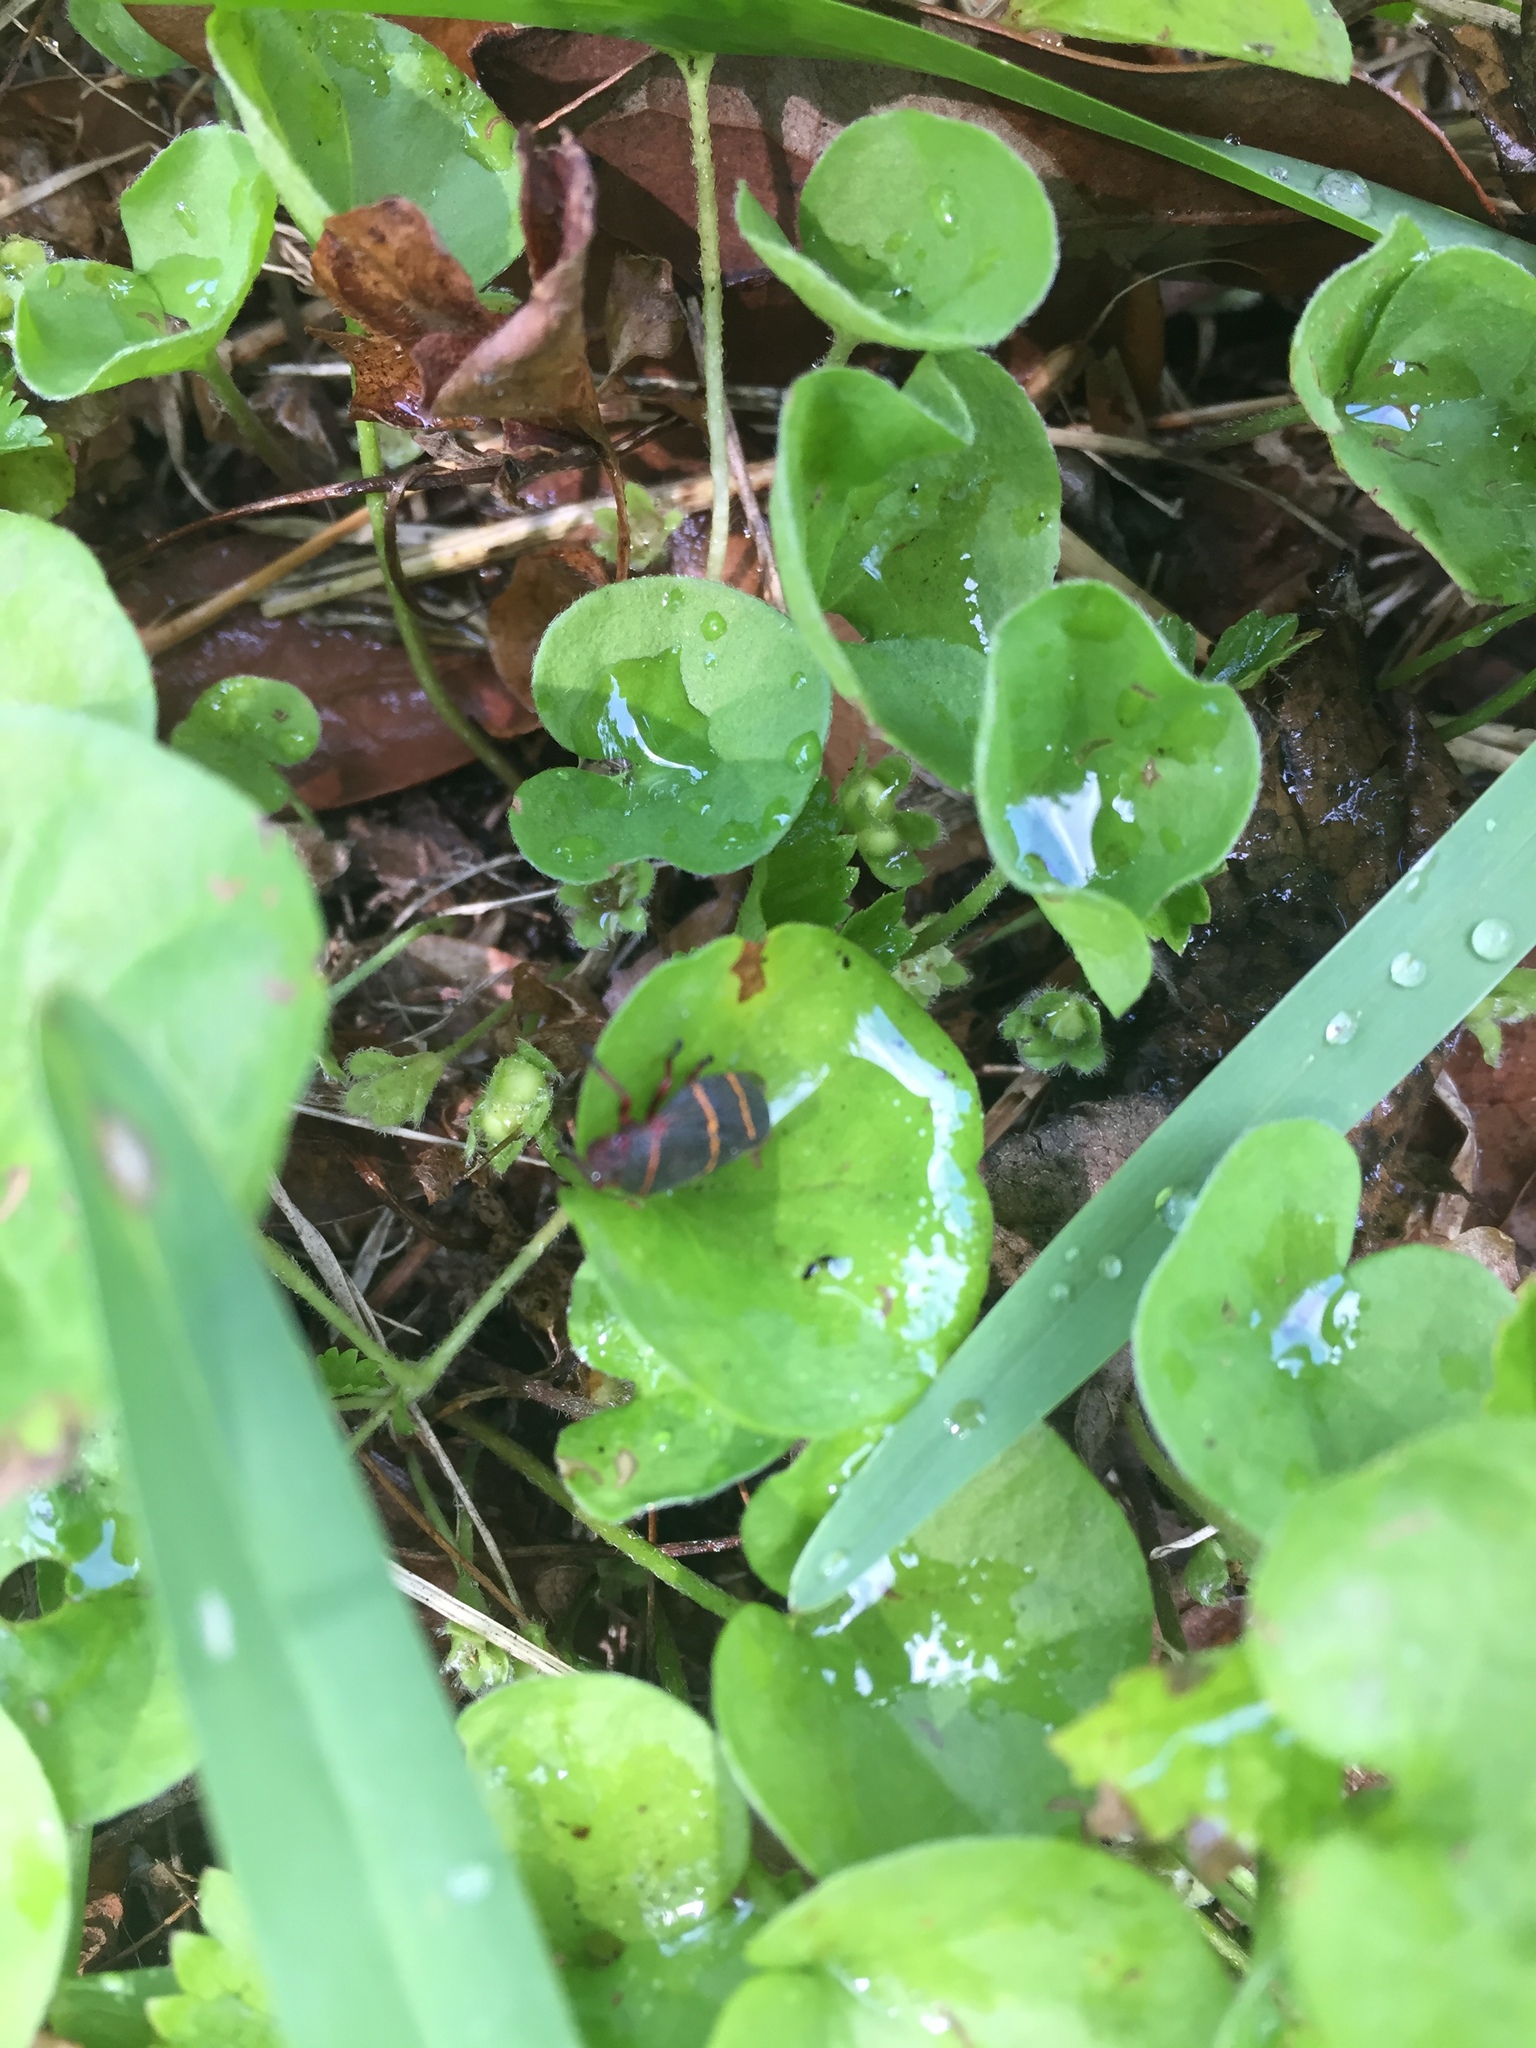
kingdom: Animalia
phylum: Arthropoda
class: Insecta
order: Hemiptera
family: Cercopidae
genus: Prosapia
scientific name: Prosapia bicincta
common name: Twolined spittlebug
